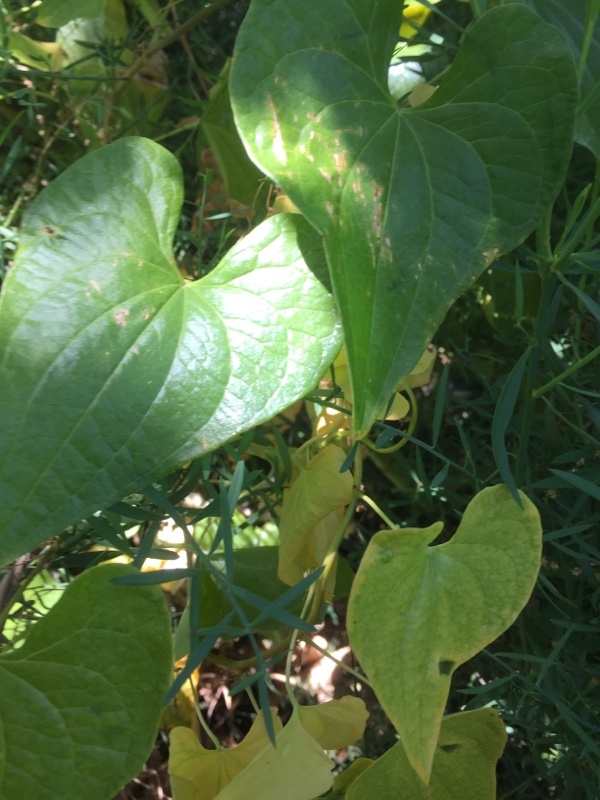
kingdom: Plantae
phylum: Tracheophyta
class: Liliopsida
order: Dioscoreales
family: Dioscoreaceae
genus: Dioscorea
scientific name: Dioscorea communis
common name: Black-bindweed
